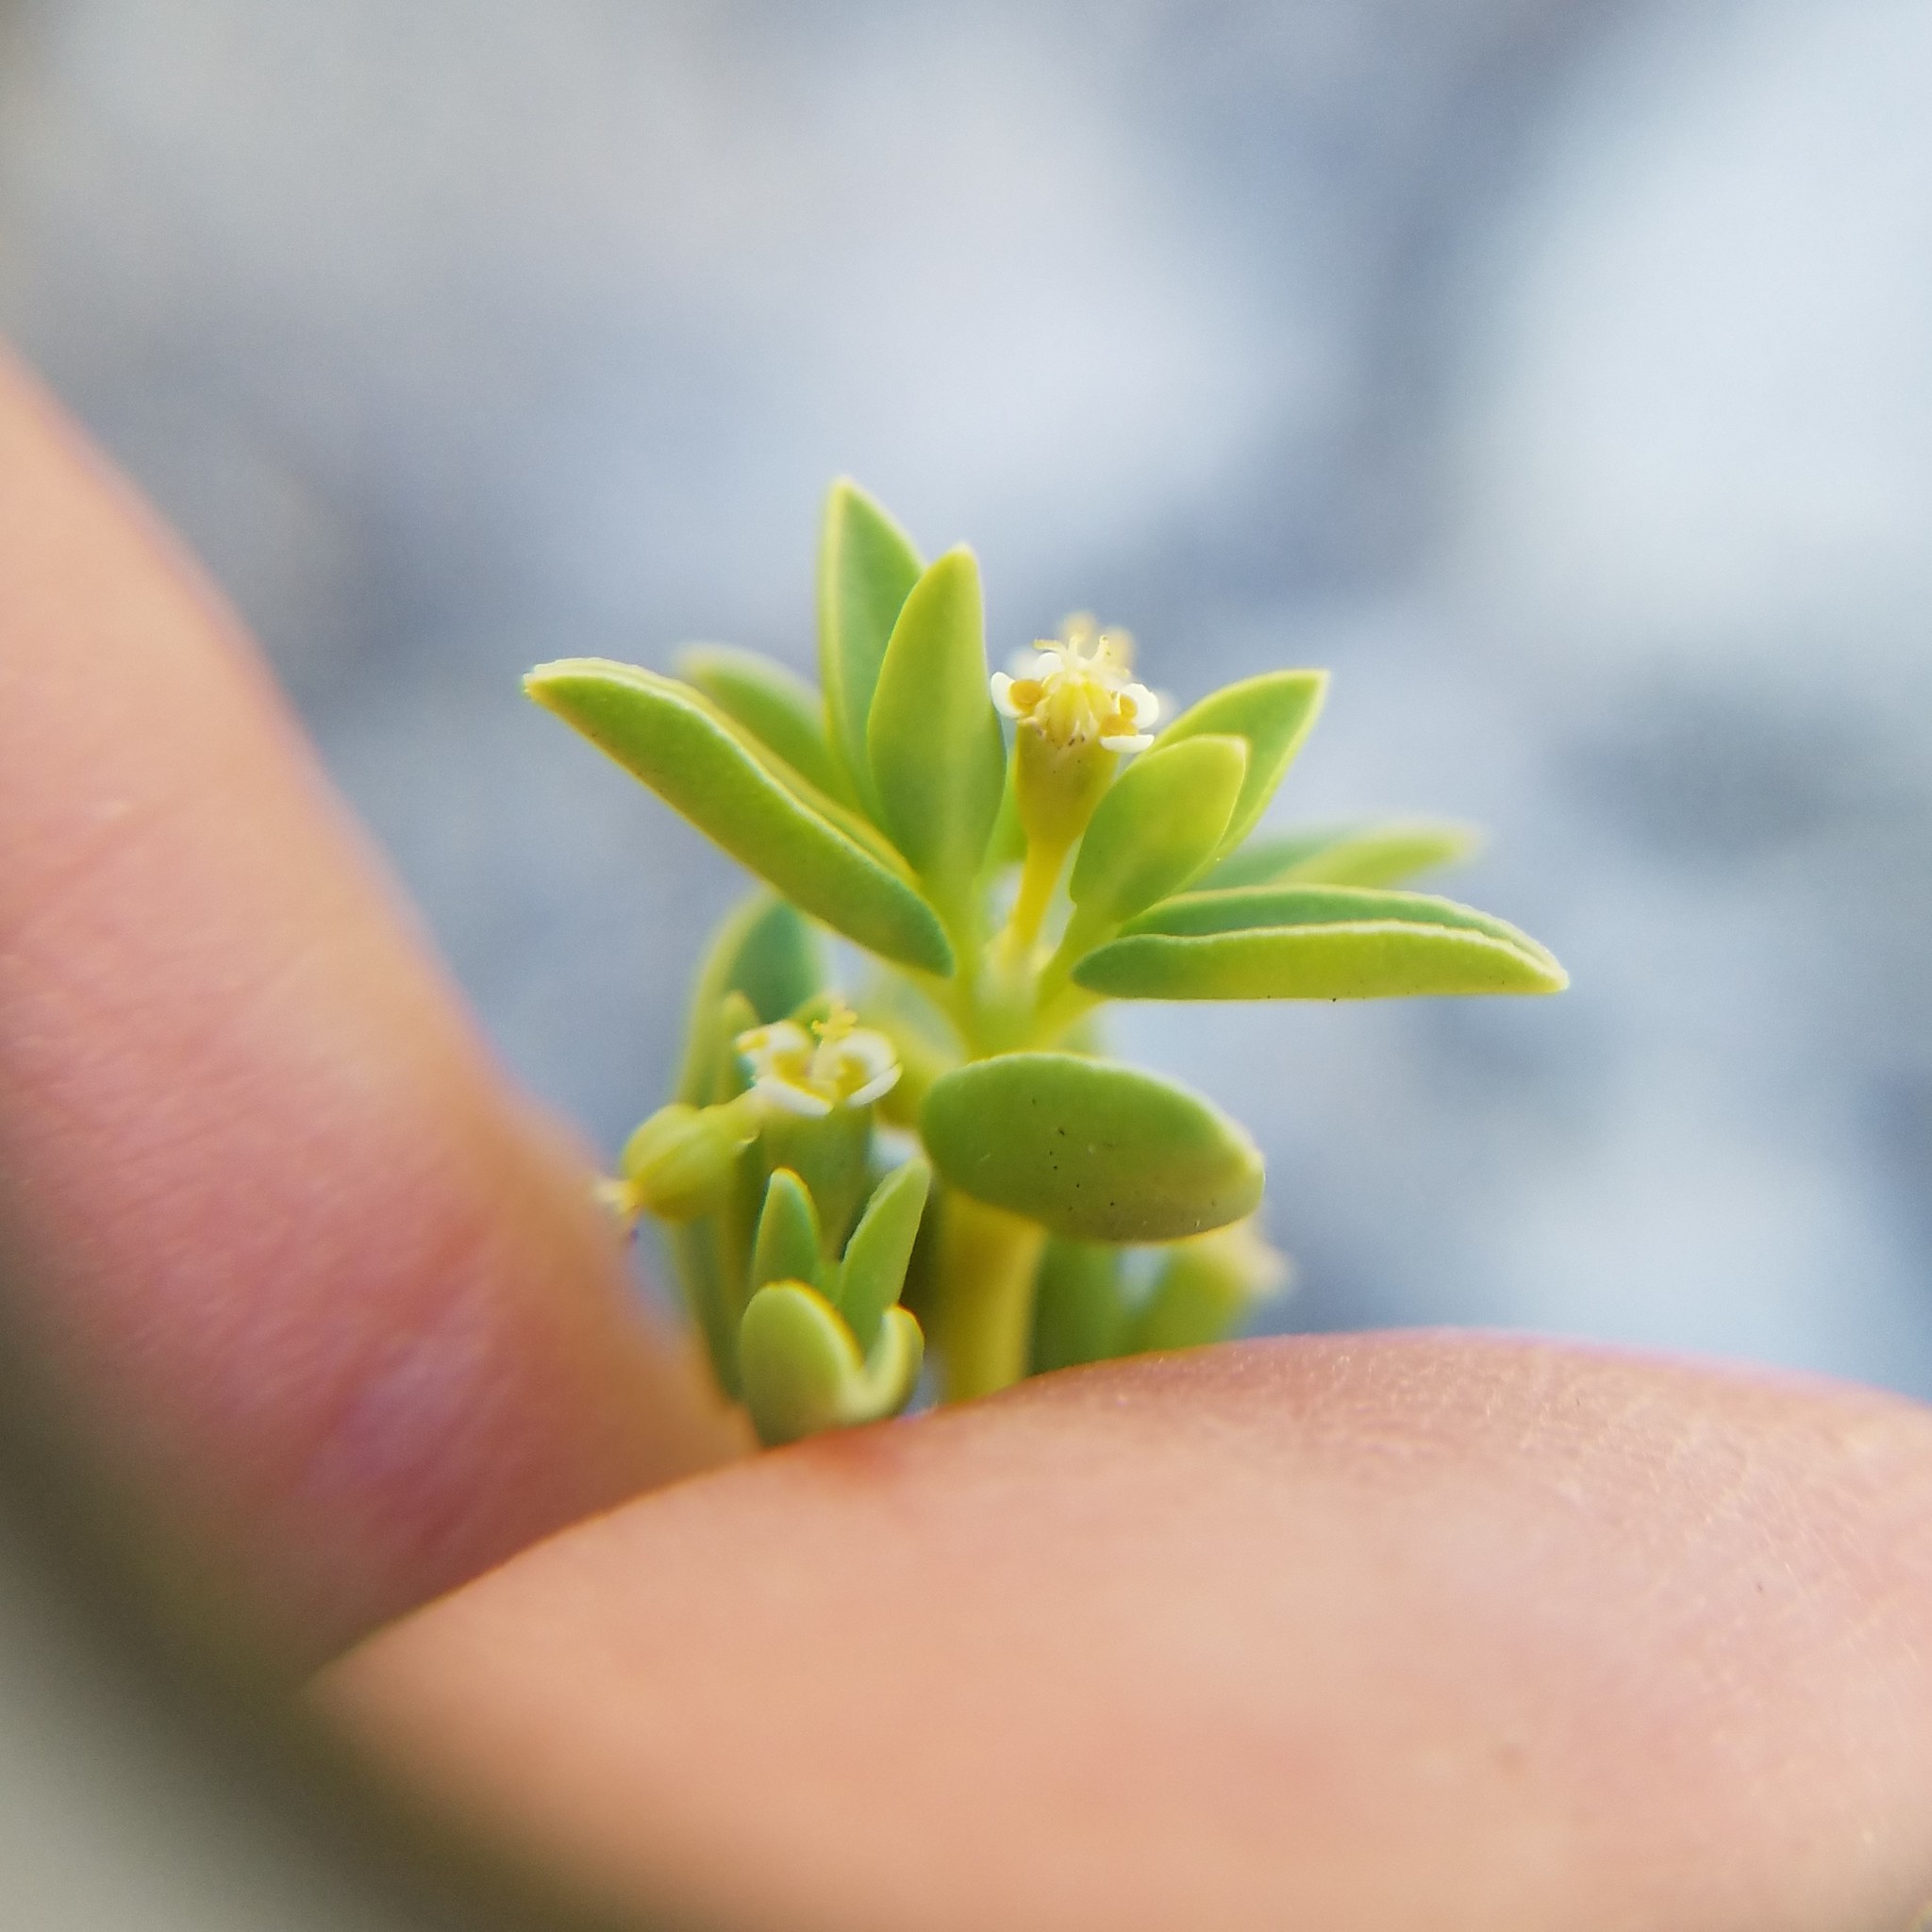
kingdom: Plantae
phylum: Tracheophyta
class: Magnoliopsida
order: Malpighiales
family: Euphorbiaceae
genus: Euphorbia
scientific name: Euphorbia mesembryanthemifolia
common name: Coastal beach sandmat
